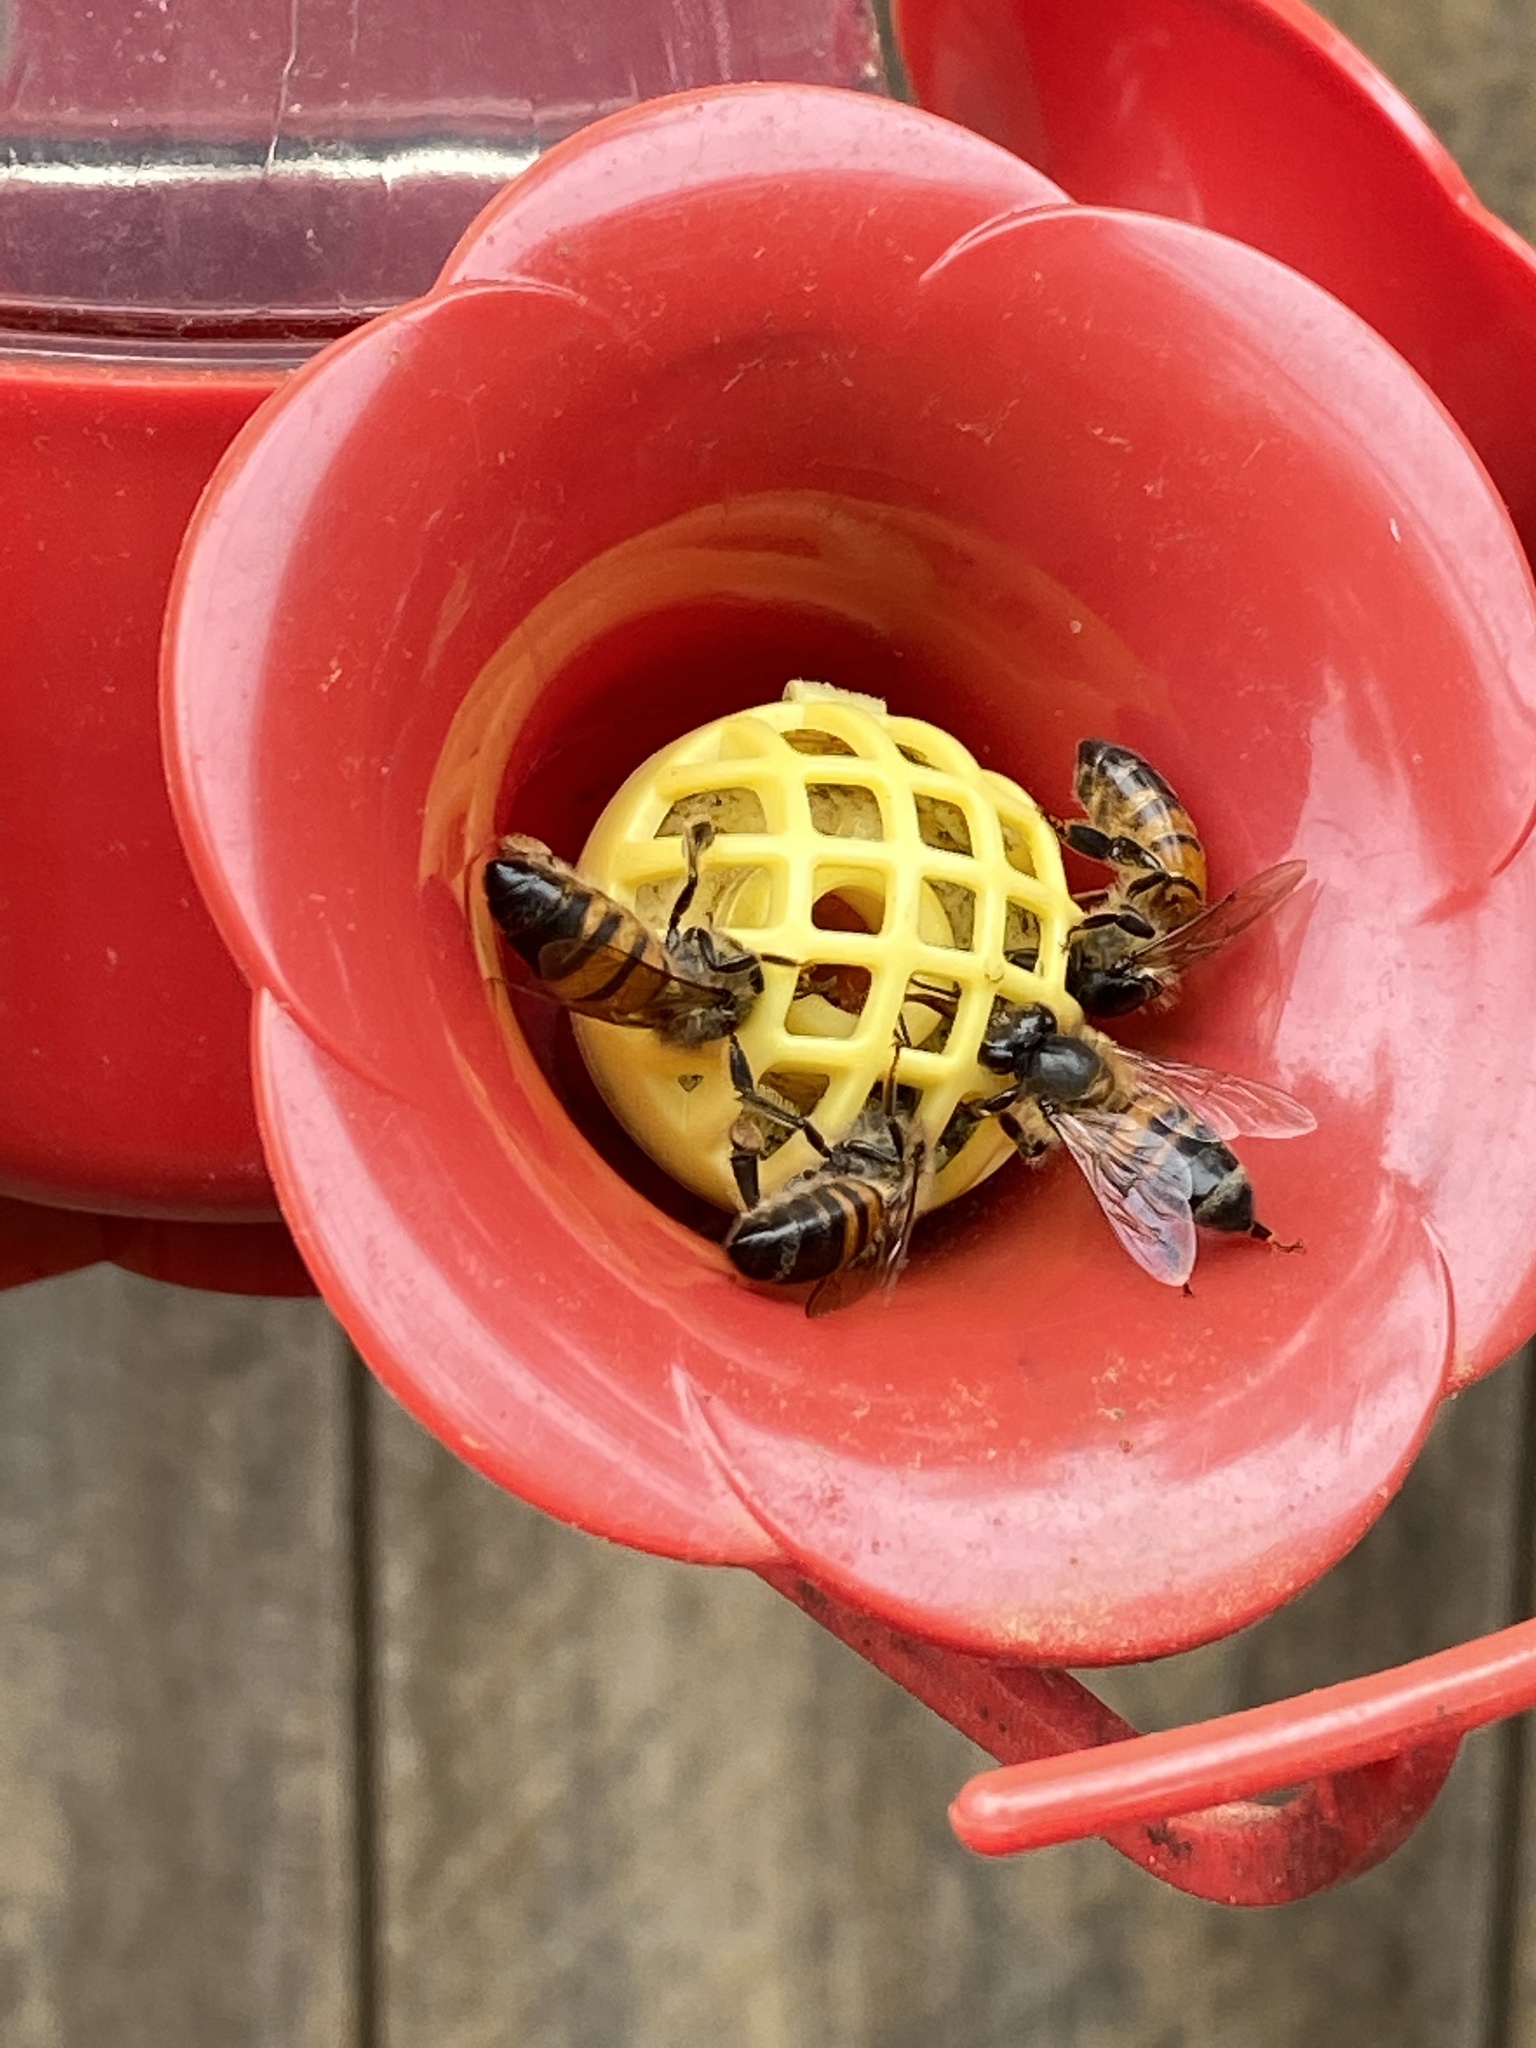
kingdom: Animalia
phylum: Arthropoda
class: Insecta
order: Hymenoptera
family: Apidae
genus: Apis
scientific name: Apis mellifera
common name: Honey bee
